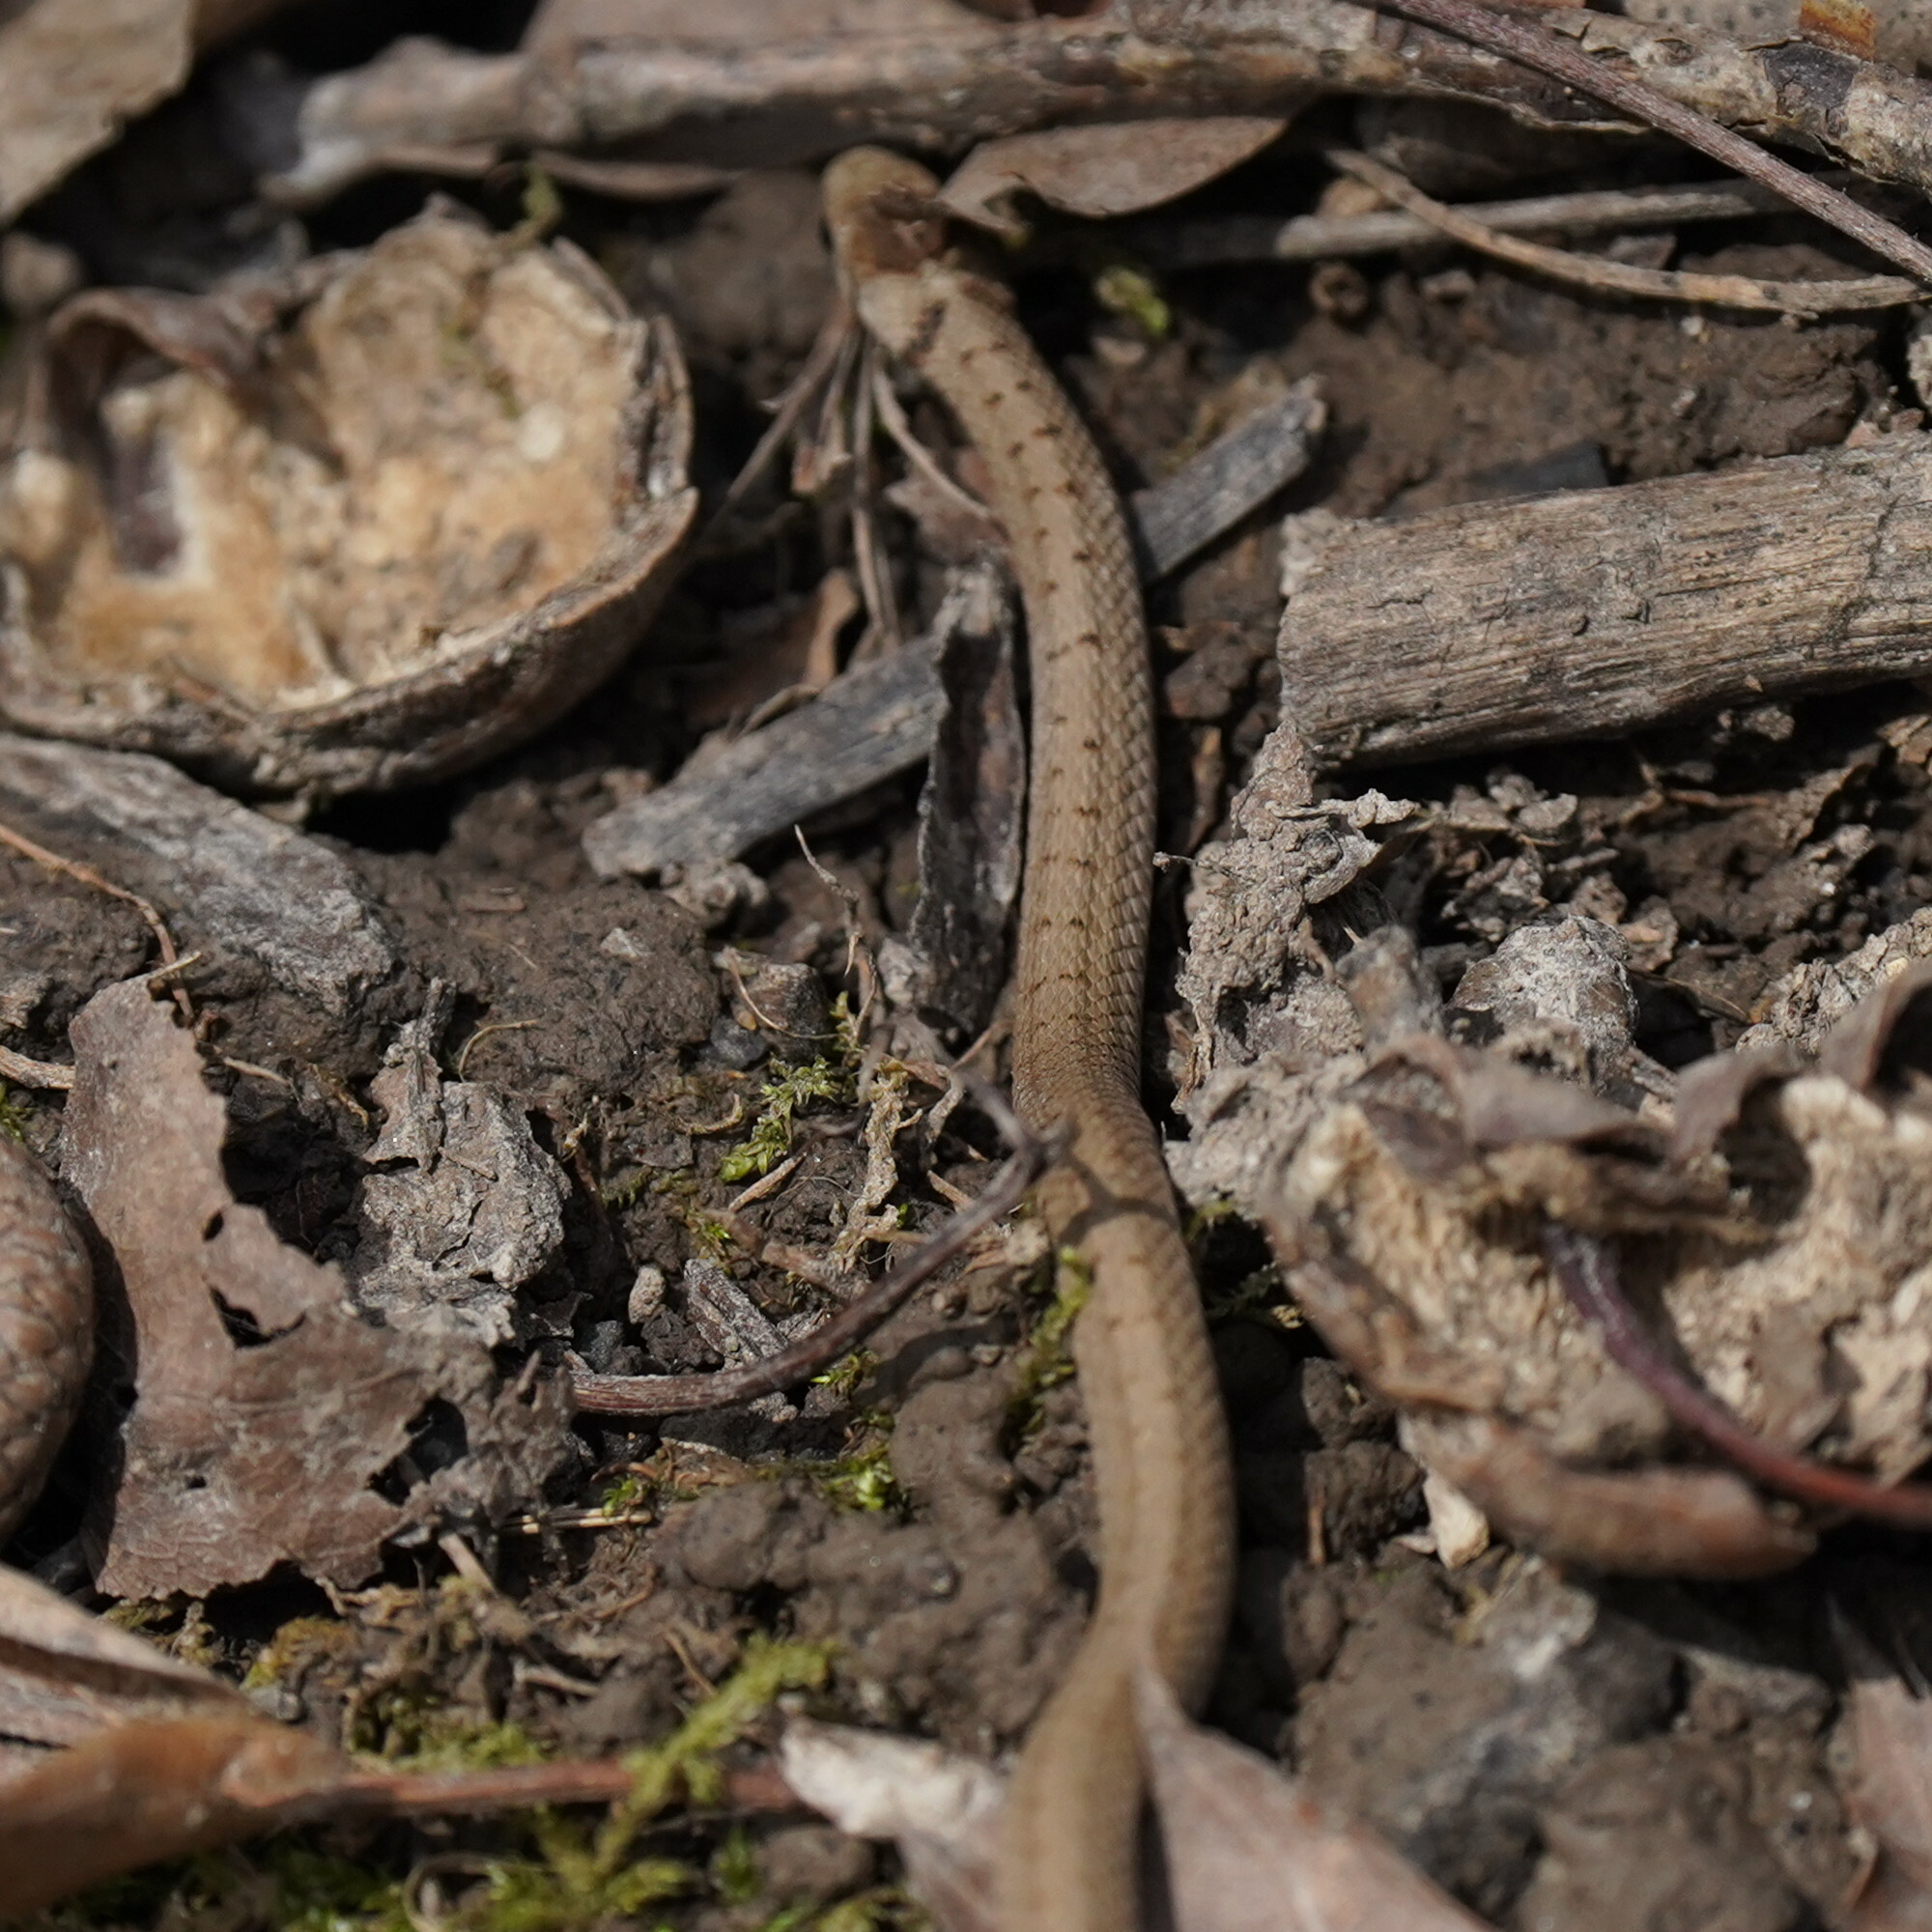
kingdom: Animalia
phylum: Chordata
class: Squamata
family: Colubridae
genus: Storeria
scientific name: Storeria dekayi
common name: (dekay’s) brown snake
